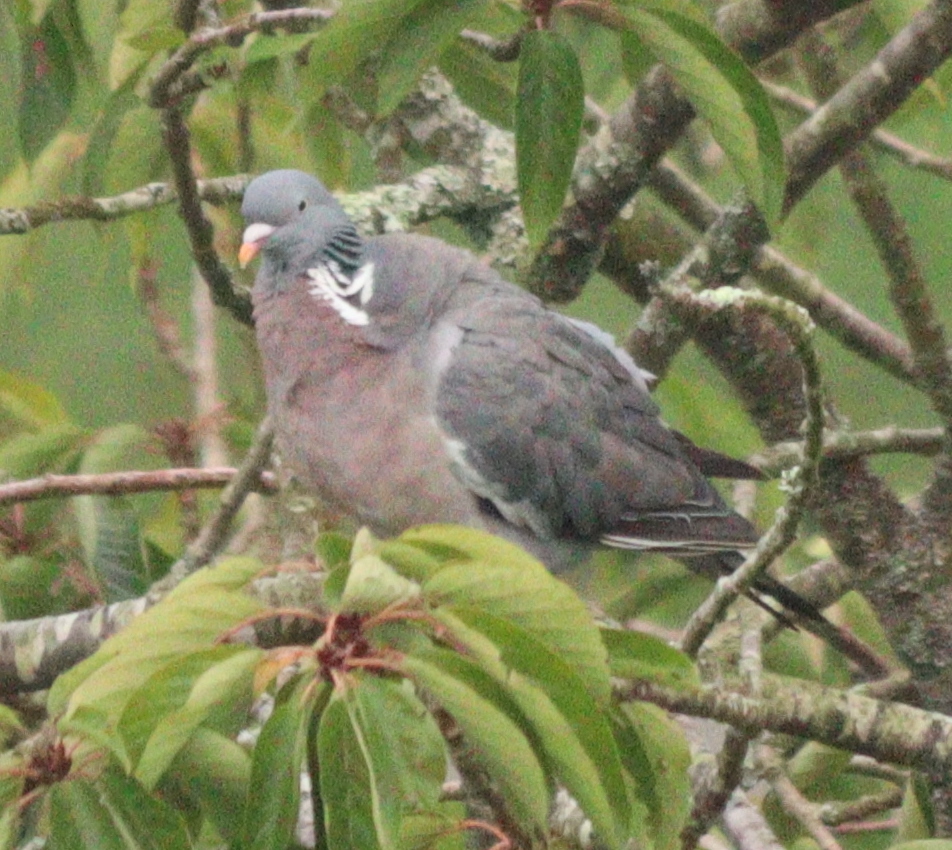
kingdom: Animalia
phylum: Chordata
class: Aves
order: Columbiformes
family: Columbidae
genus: Columba
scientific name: Columba palumbus
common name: Common wood pigeon
